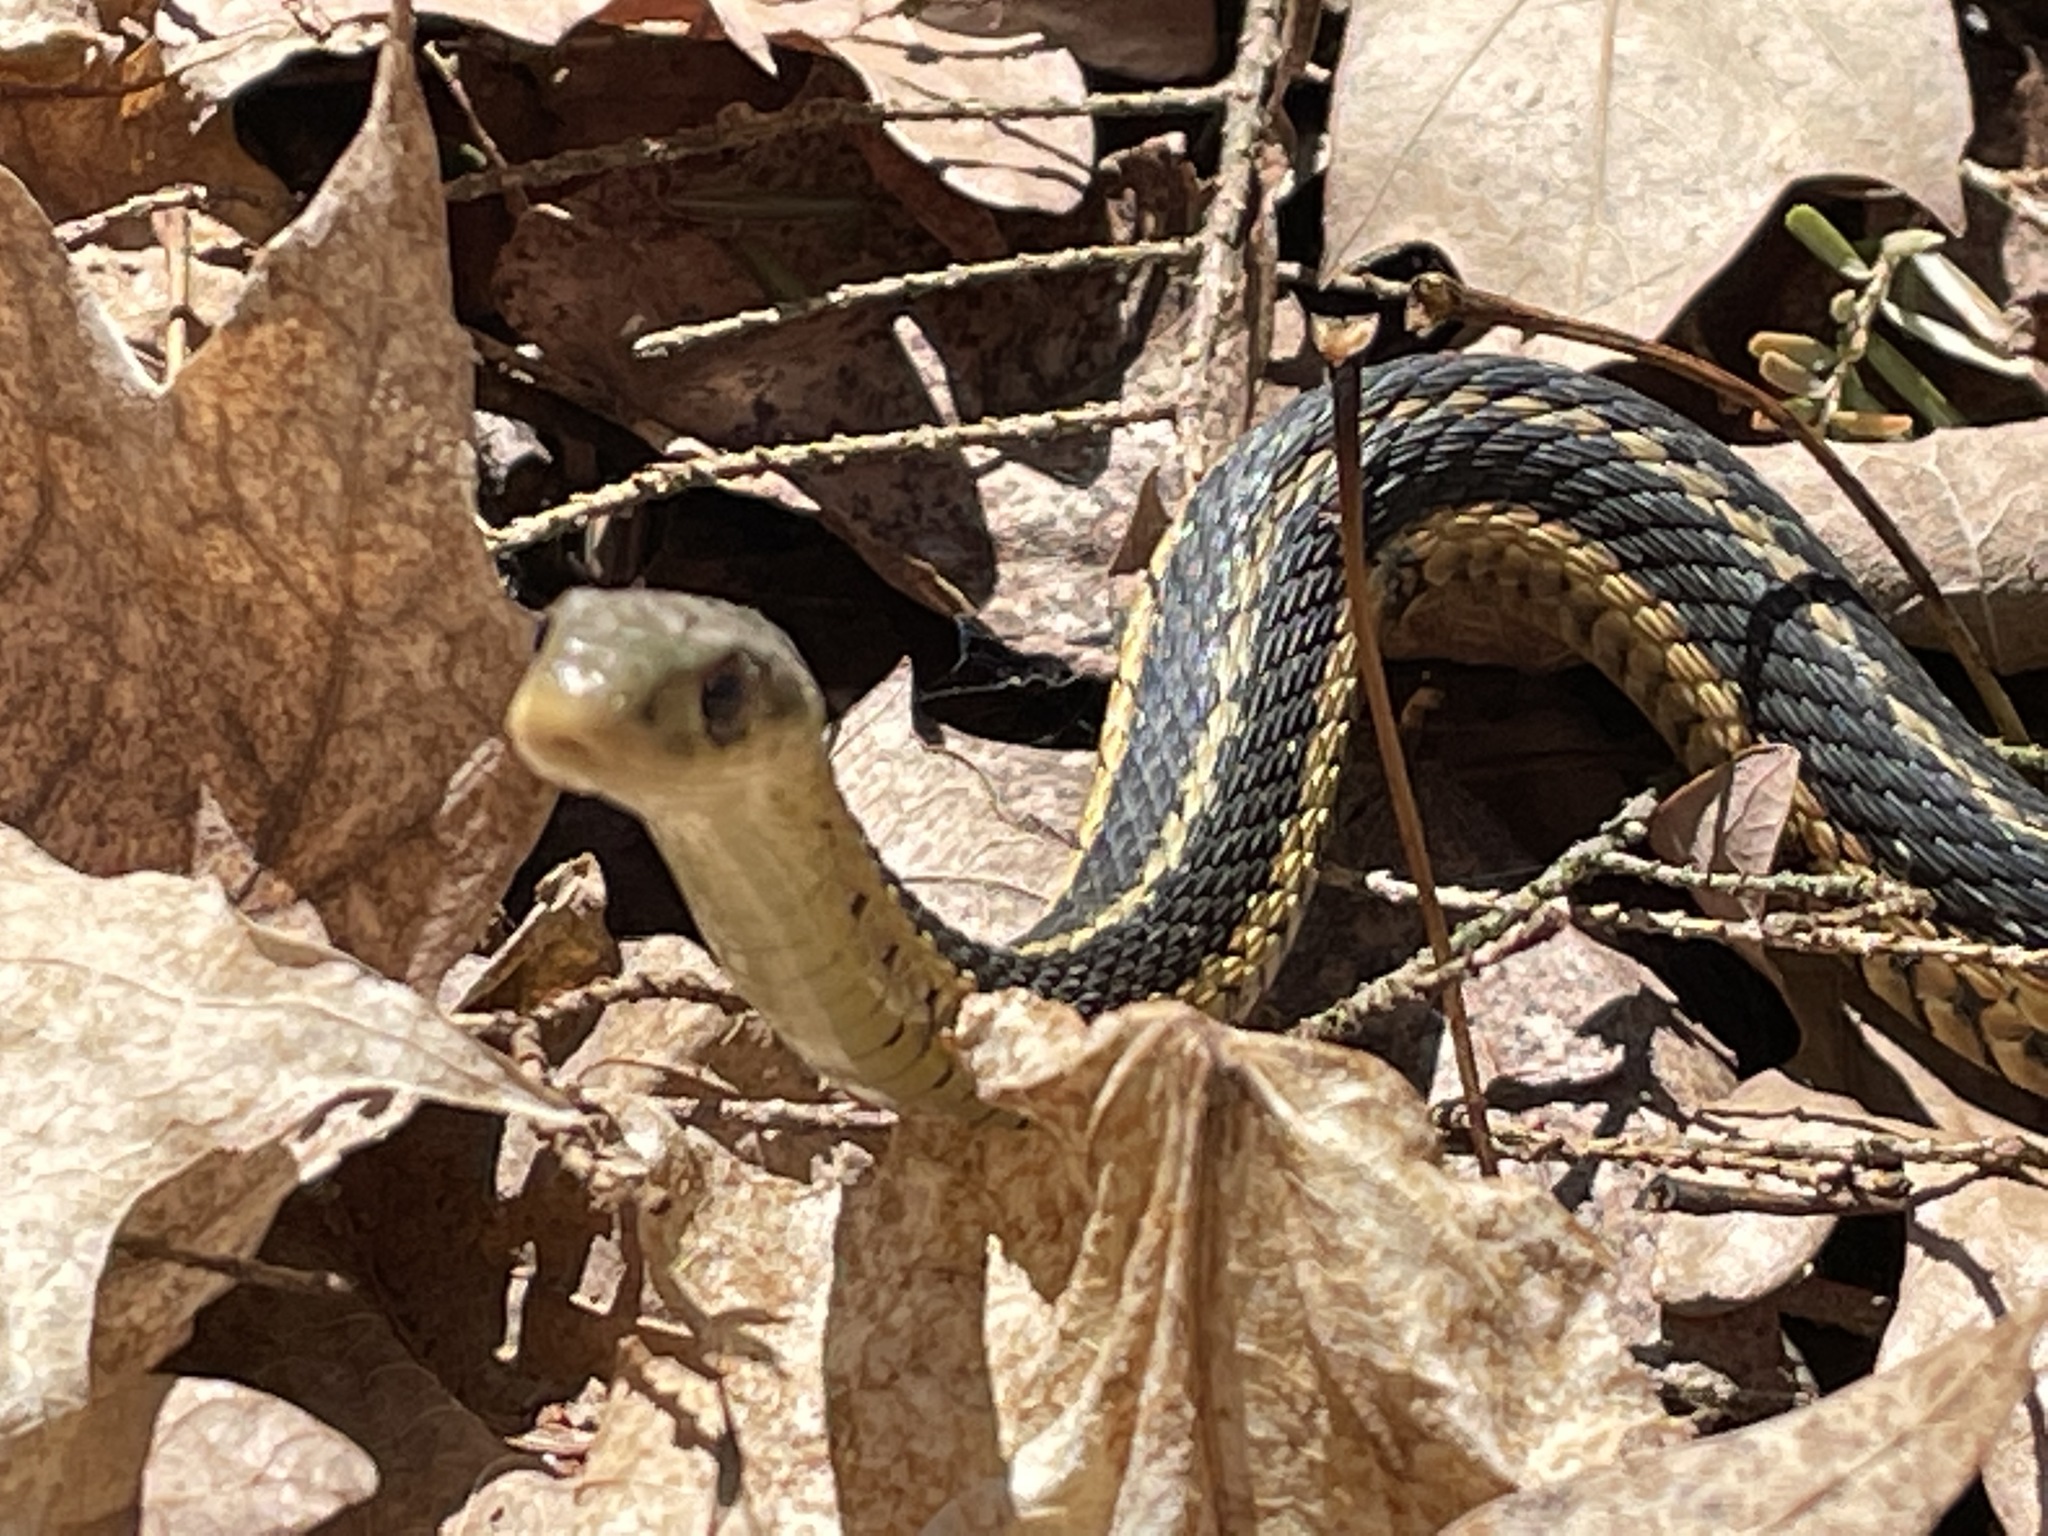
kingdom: Animalia
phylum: Chordata
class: Squamata
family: Colubridae
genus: Thamnophis
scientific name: Thamnophis sirtalis
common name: Common garter snake
